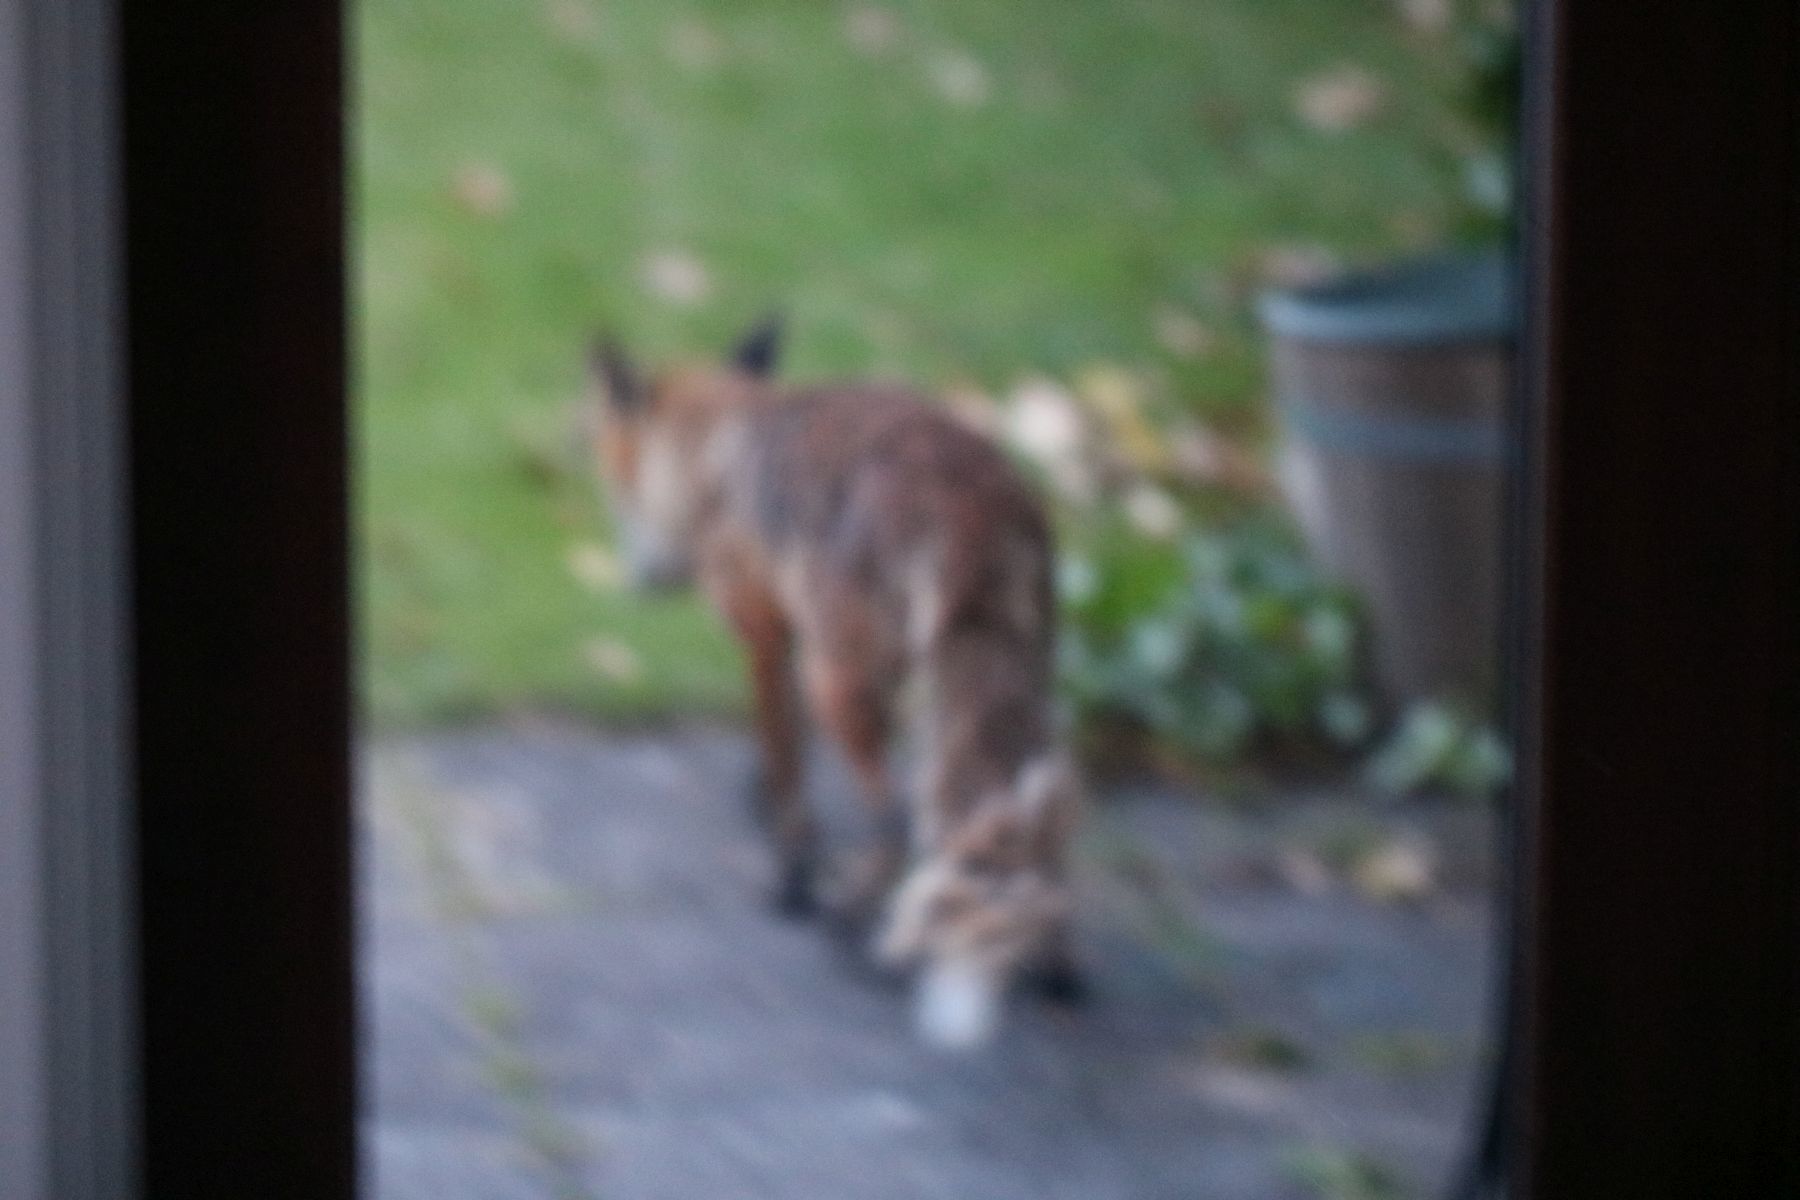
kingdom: Animalia
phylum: Chordata
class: Mammalia
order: Carnivora
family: Canidae
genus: Vulpes
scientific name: Vulpes vulpes
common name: Red fox
